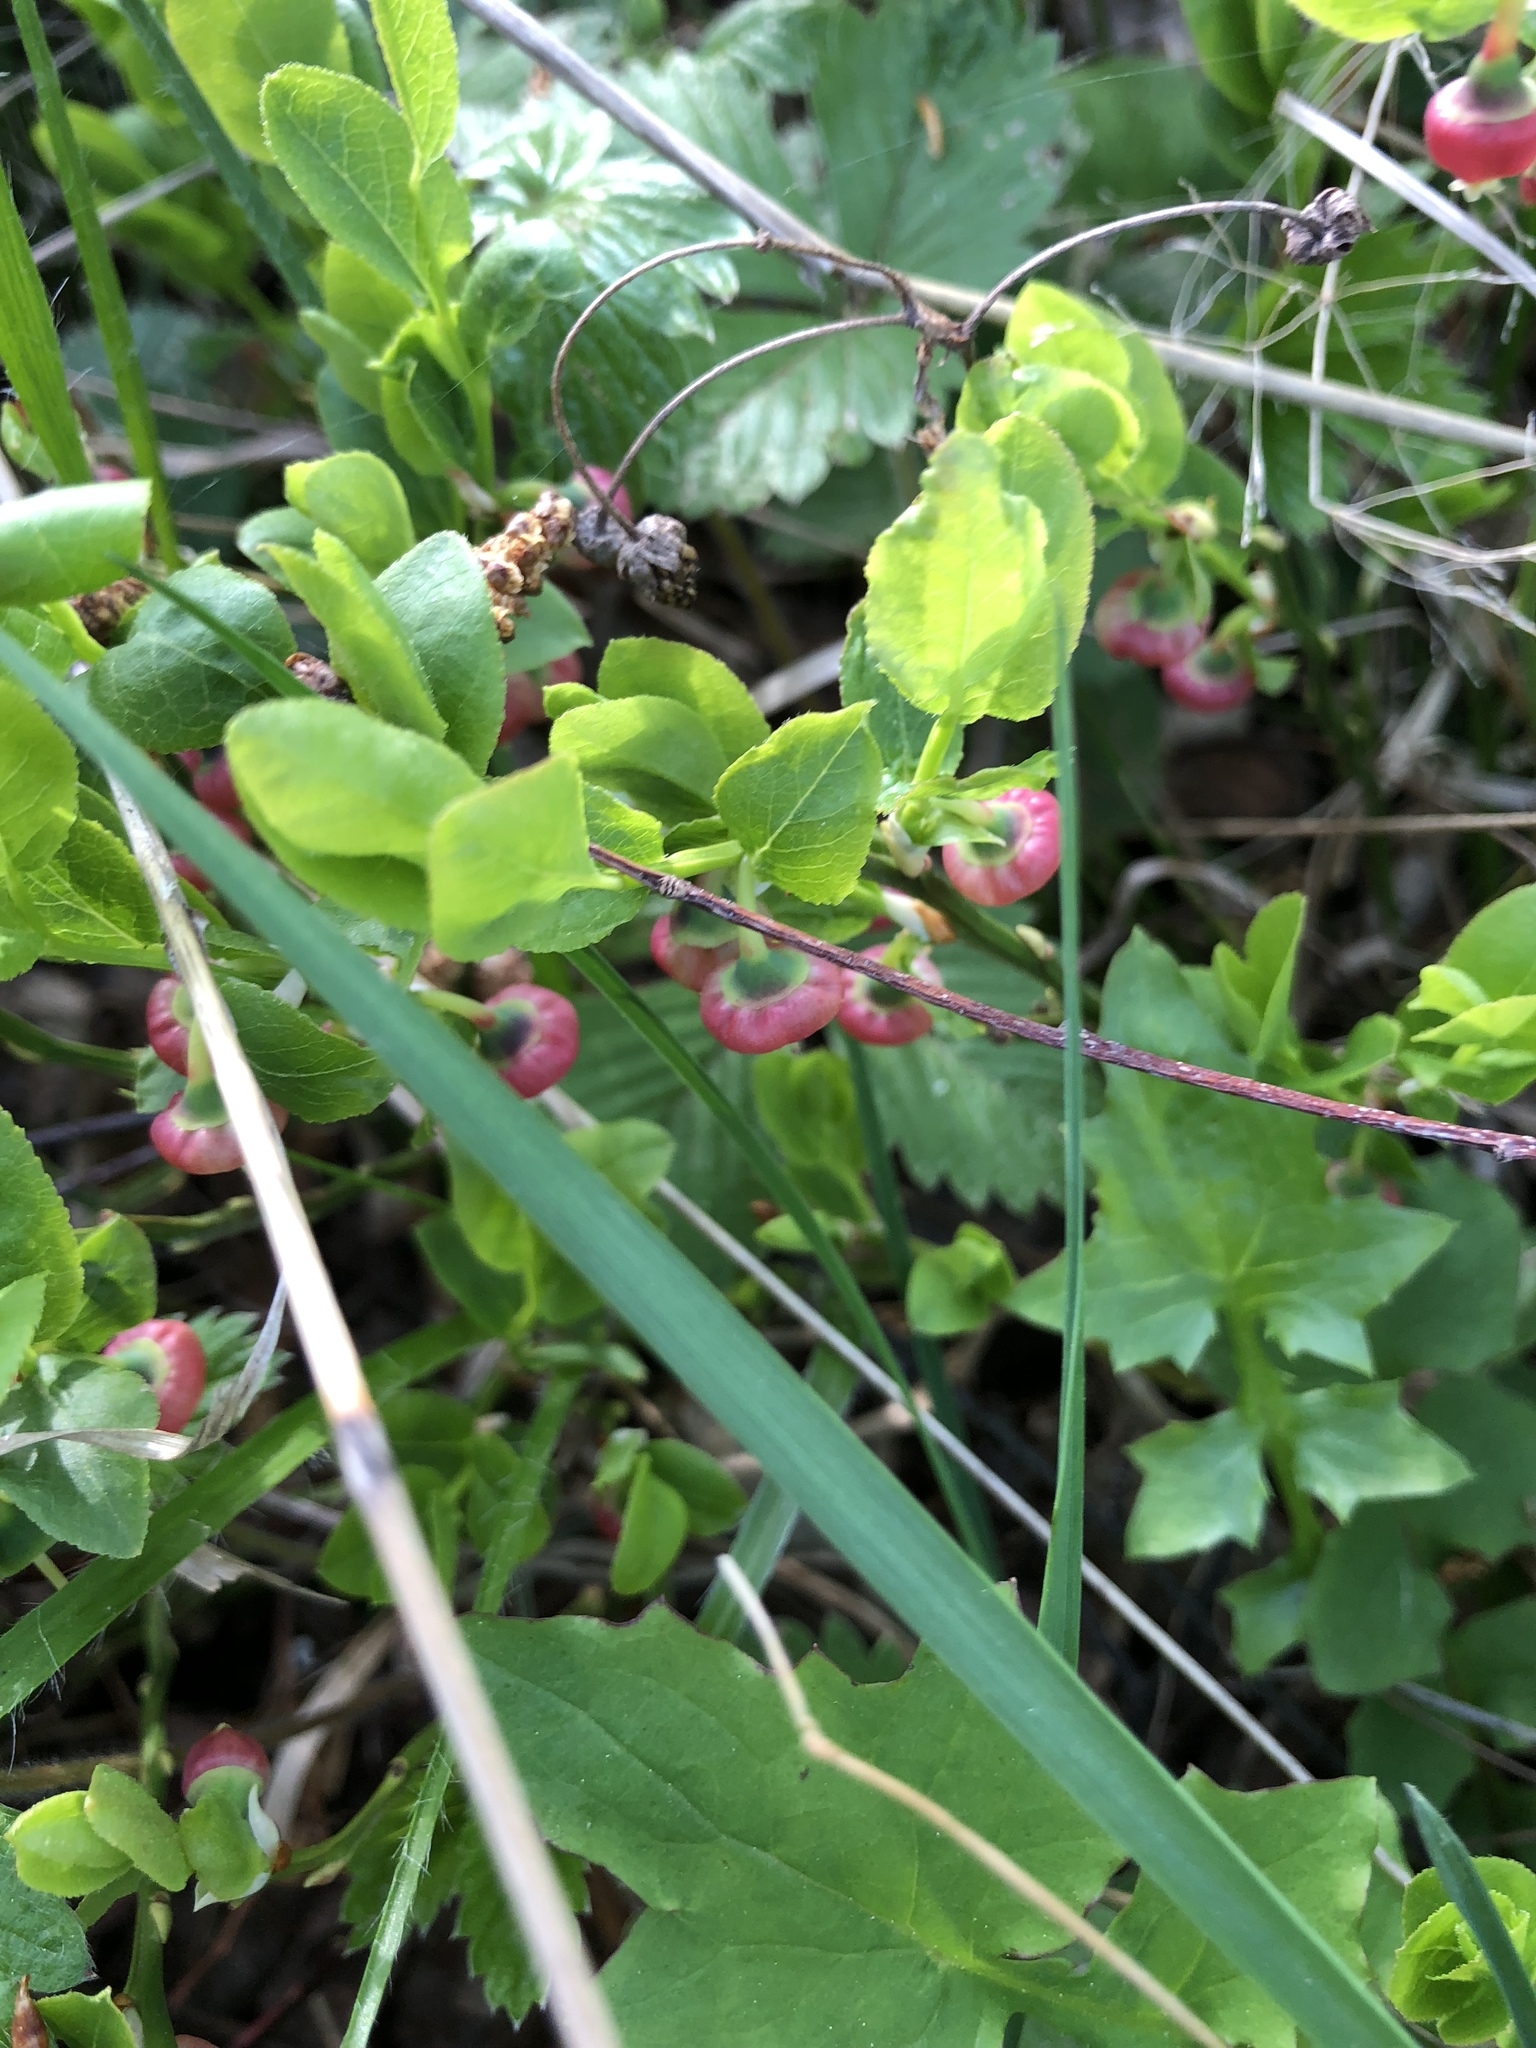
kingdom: Plantae
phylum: Tracheophyta
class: Magnoliopsida
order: Ericales
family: Ericaceae
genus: Vaccinium
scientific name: Vaccinium myrtillus
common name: Bilberry
